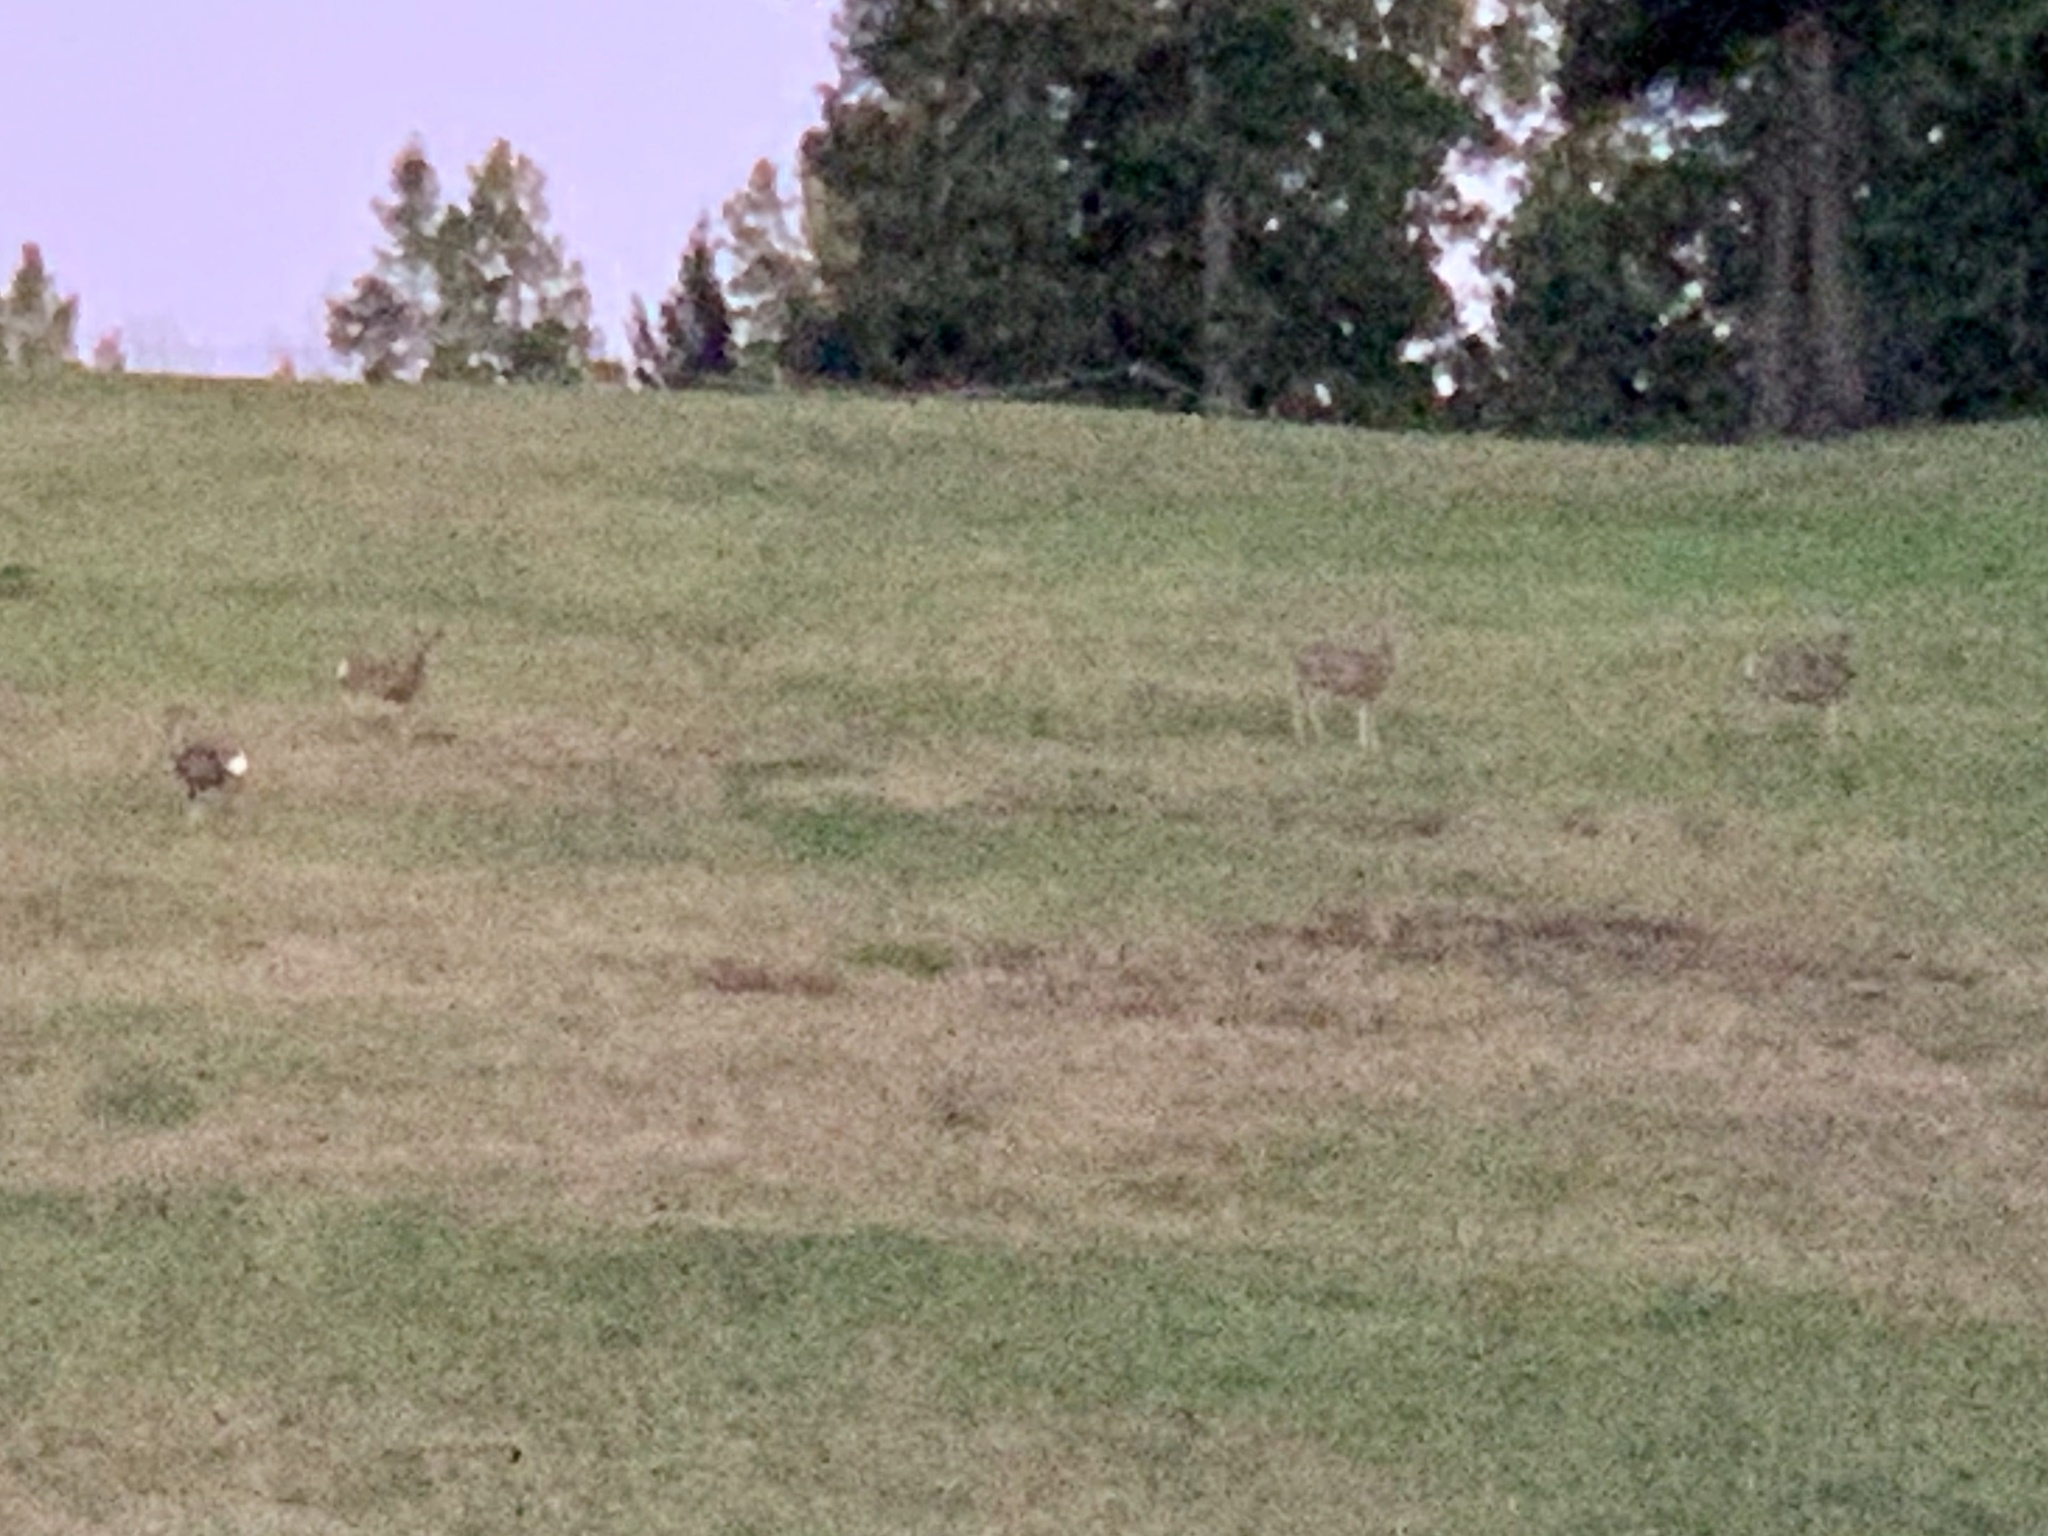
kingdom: Animalia
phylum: Chordata
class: Mammalia
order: Artiodactyla
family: Cervidae
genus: Odocoileus
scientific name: Odocoileus hemionus
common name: Mule deer
